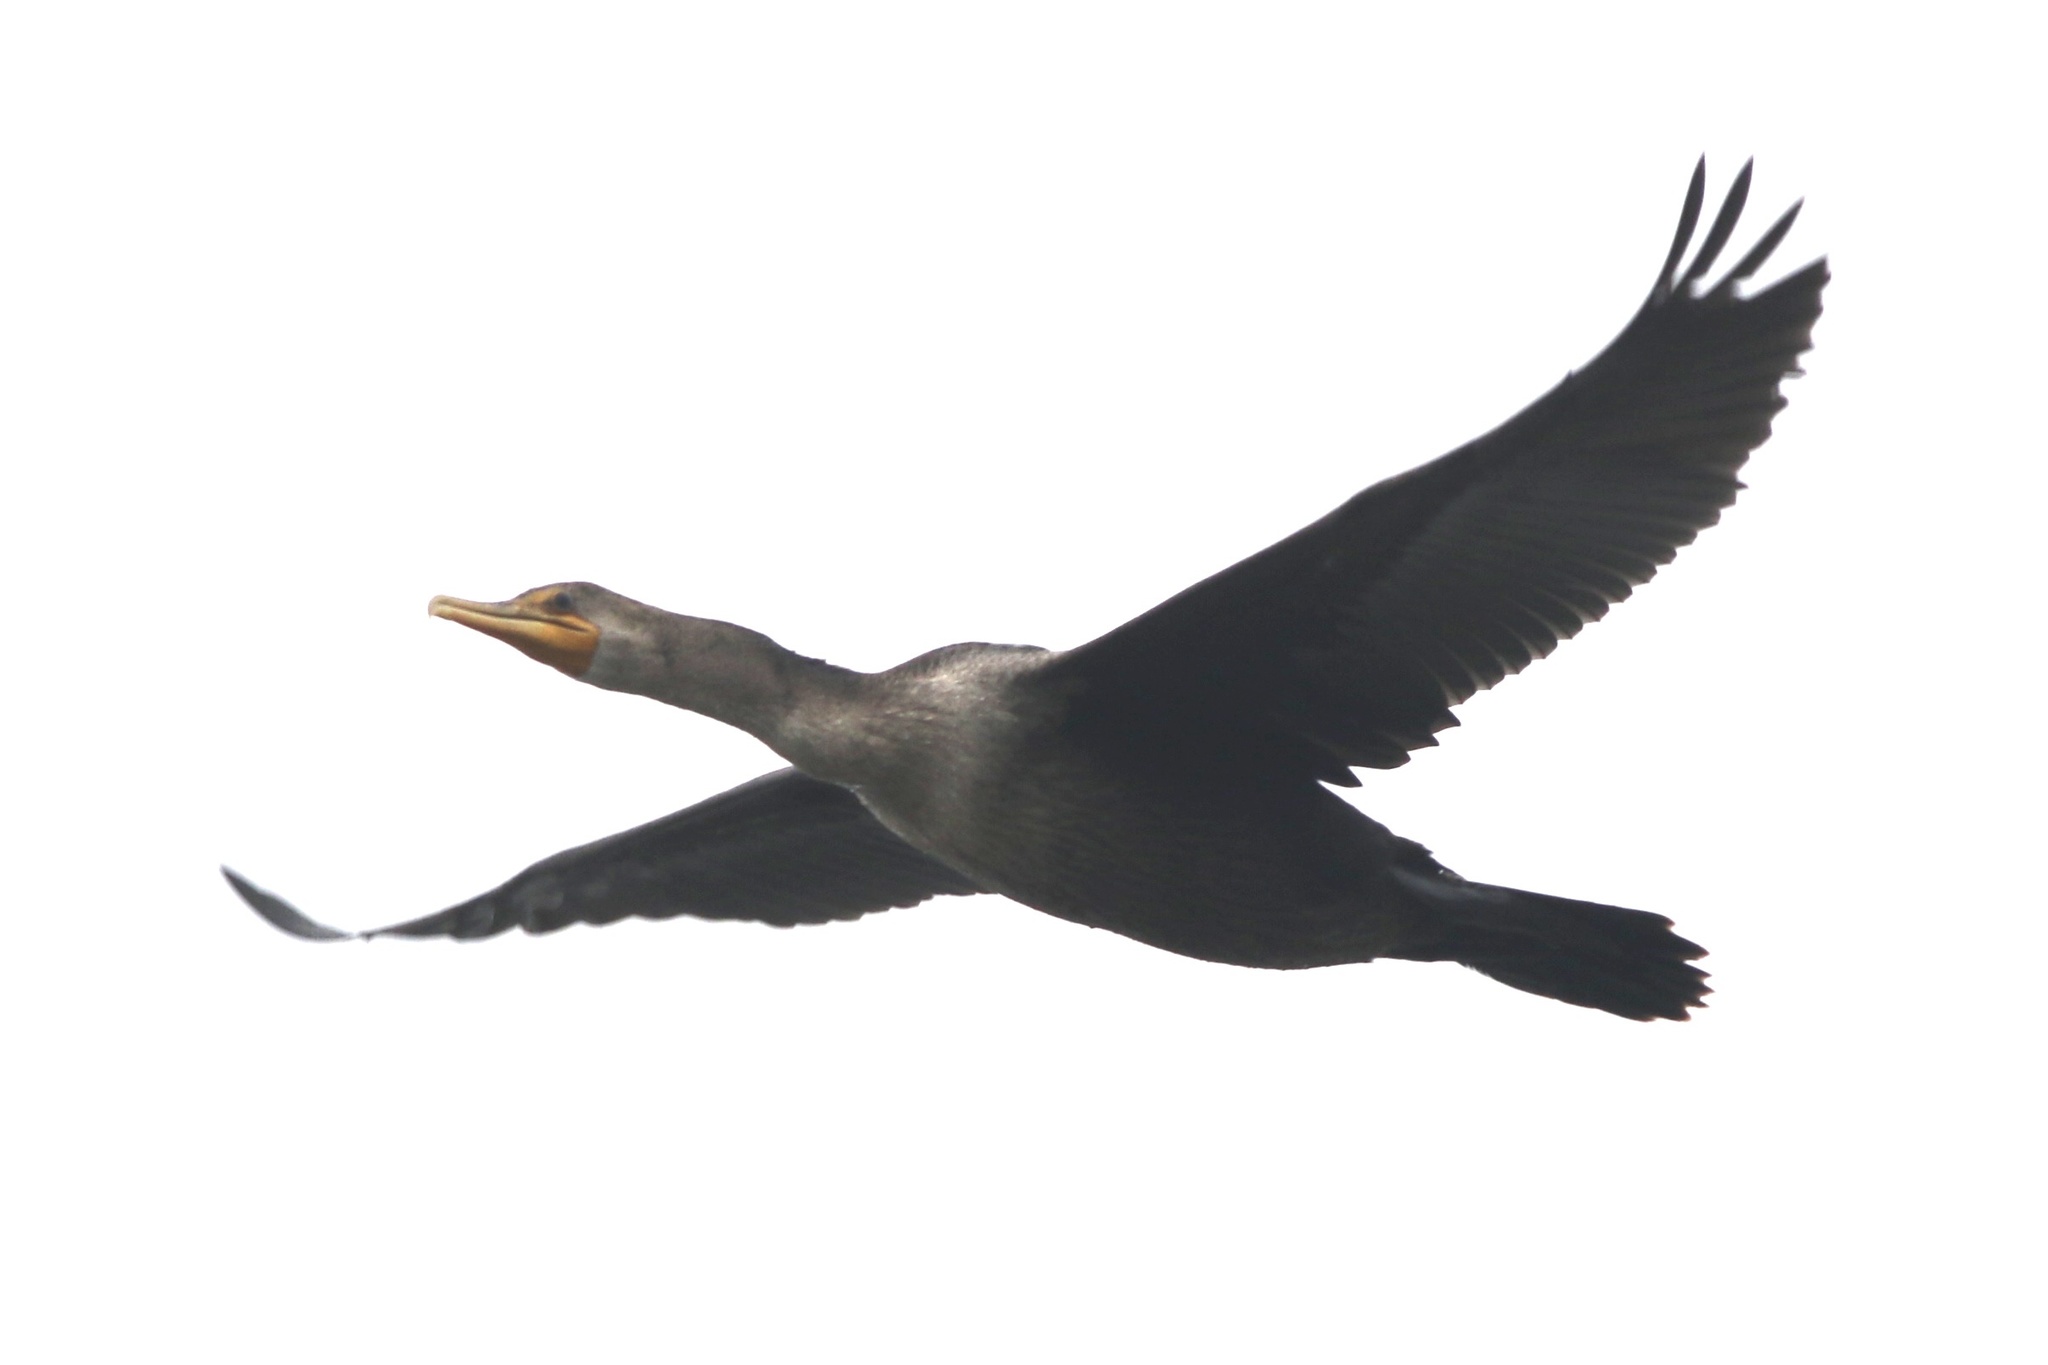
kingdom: Animalia
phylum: Chordata
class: Aves
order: Suliformes
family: Phalacrocoracidae
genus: Phalacrocorax
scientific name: Phalacrocorax auritus
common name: Double-crested cormorant
